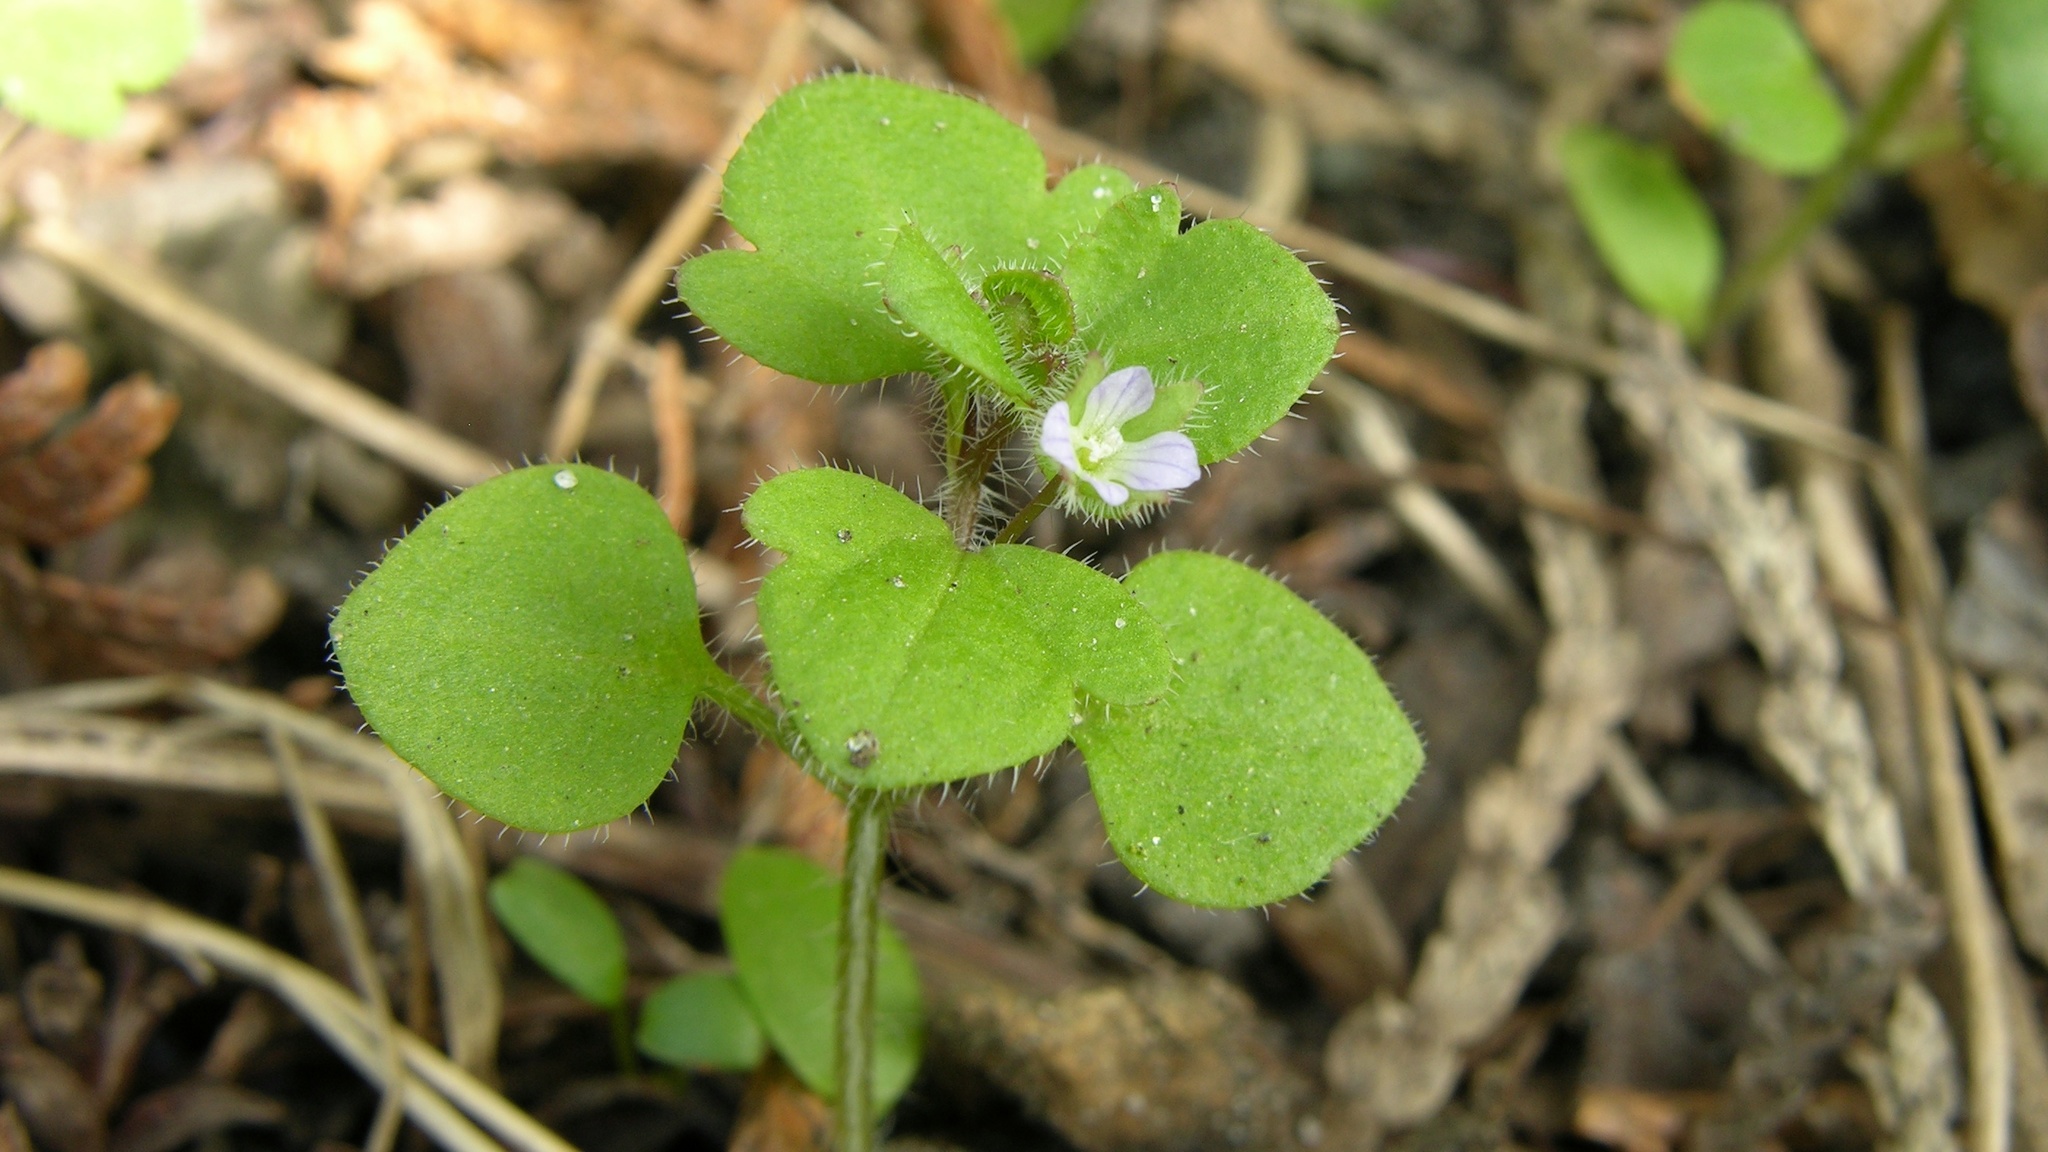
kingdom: Plantae
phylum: Tracheophyta
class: Magnoliopsida
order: Lamiales
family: Plantaginaceae
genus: Veronica
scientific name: Veronica hederifolia
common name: Ivy-leaved speedwell
